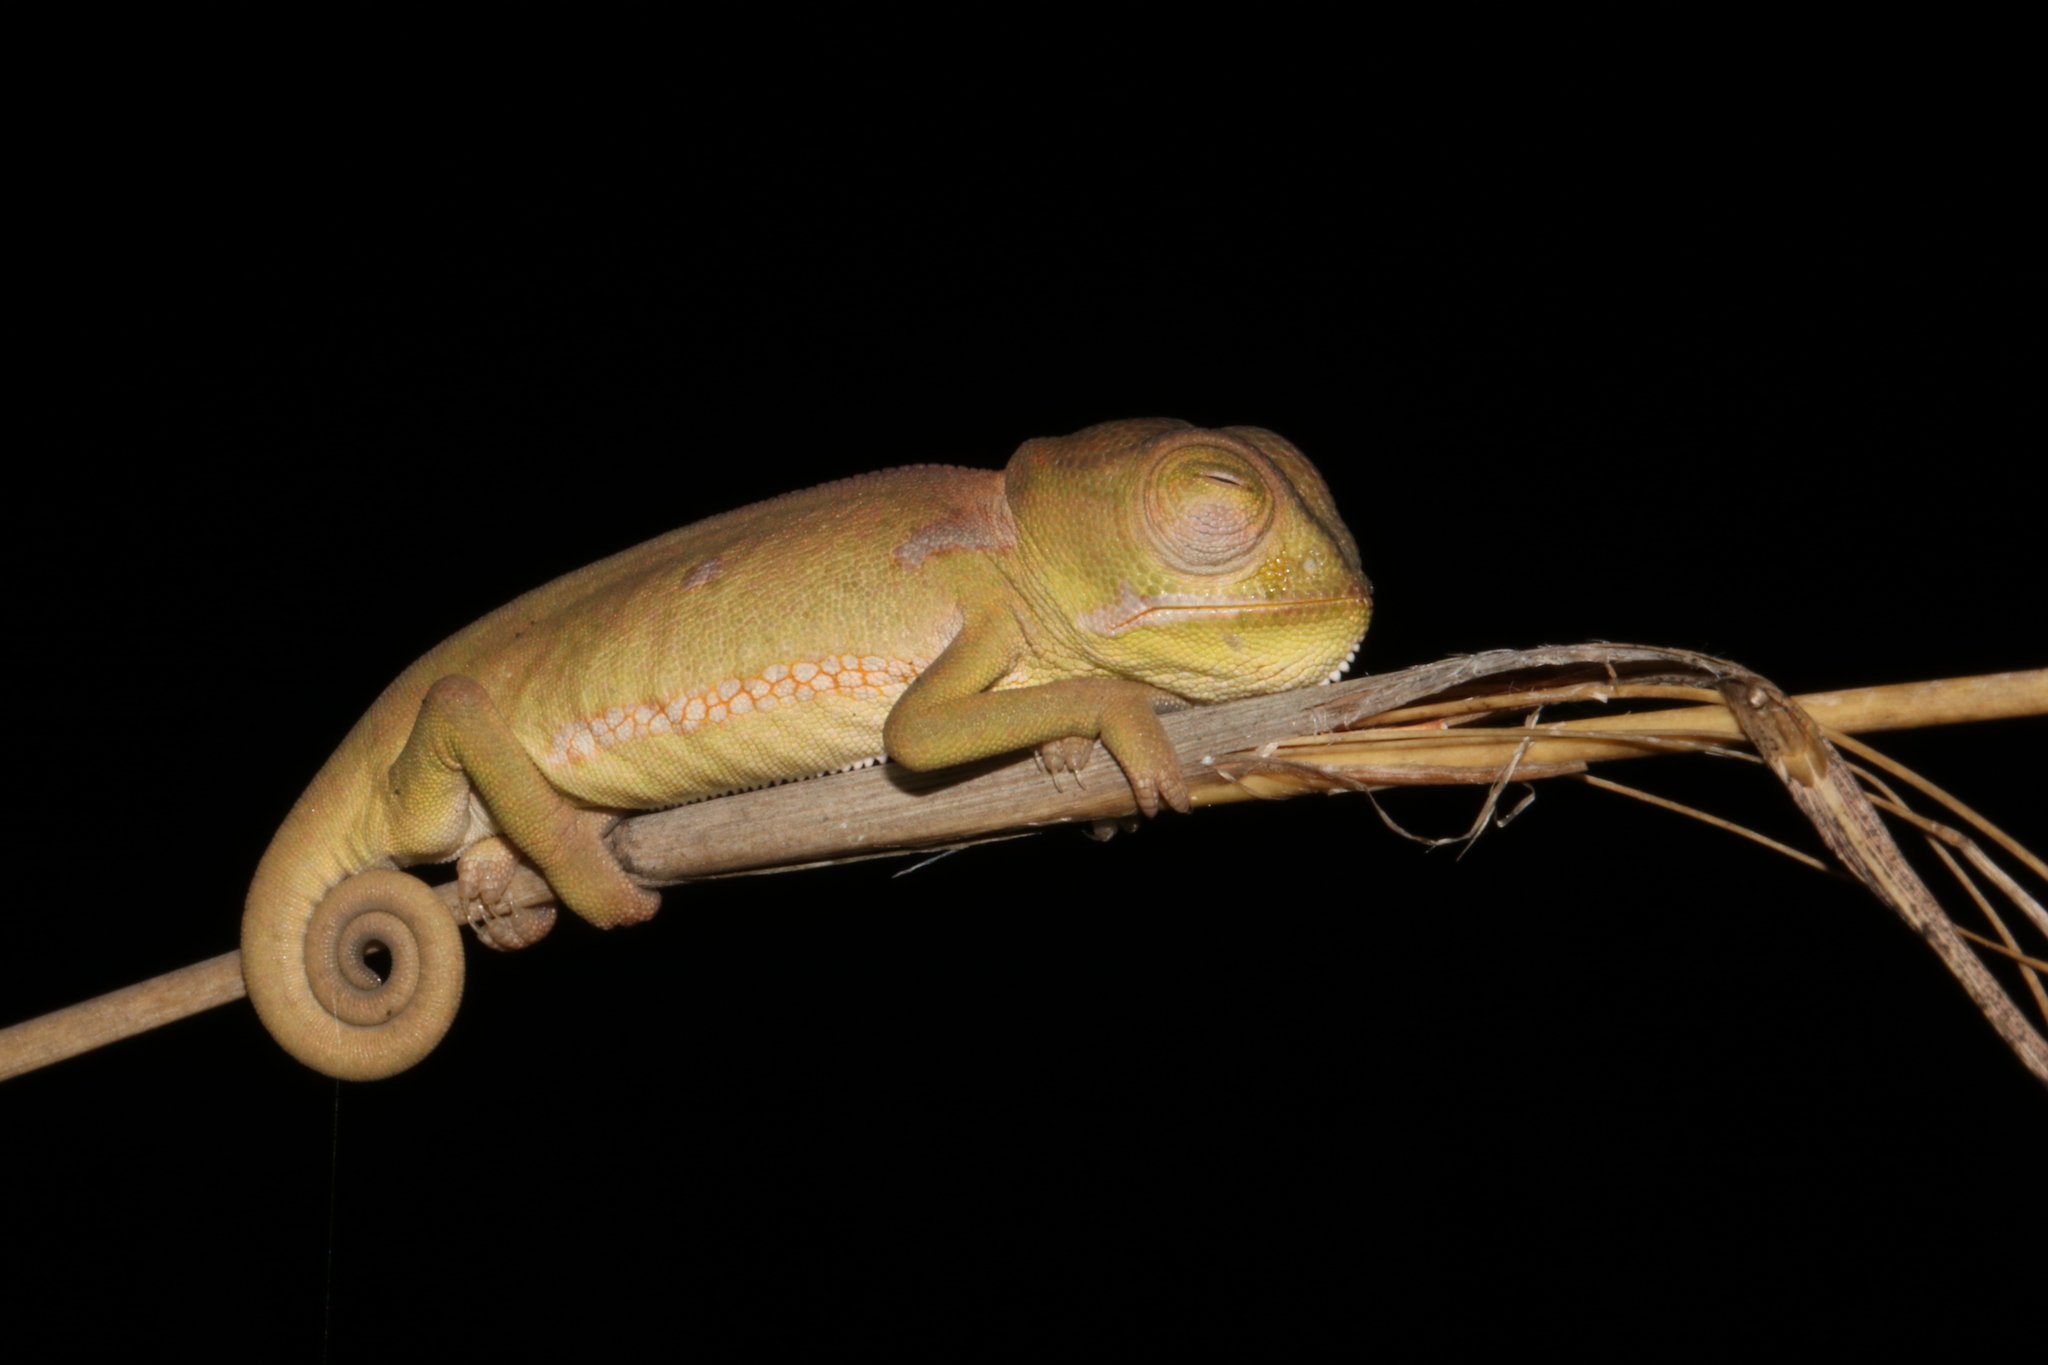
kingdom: Animalia
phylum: Chordata
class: Squamata
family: Chamaeleonidae
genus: Chamaeleo
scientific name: Chamaeleo dilepis
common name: Flapneck chameleon
